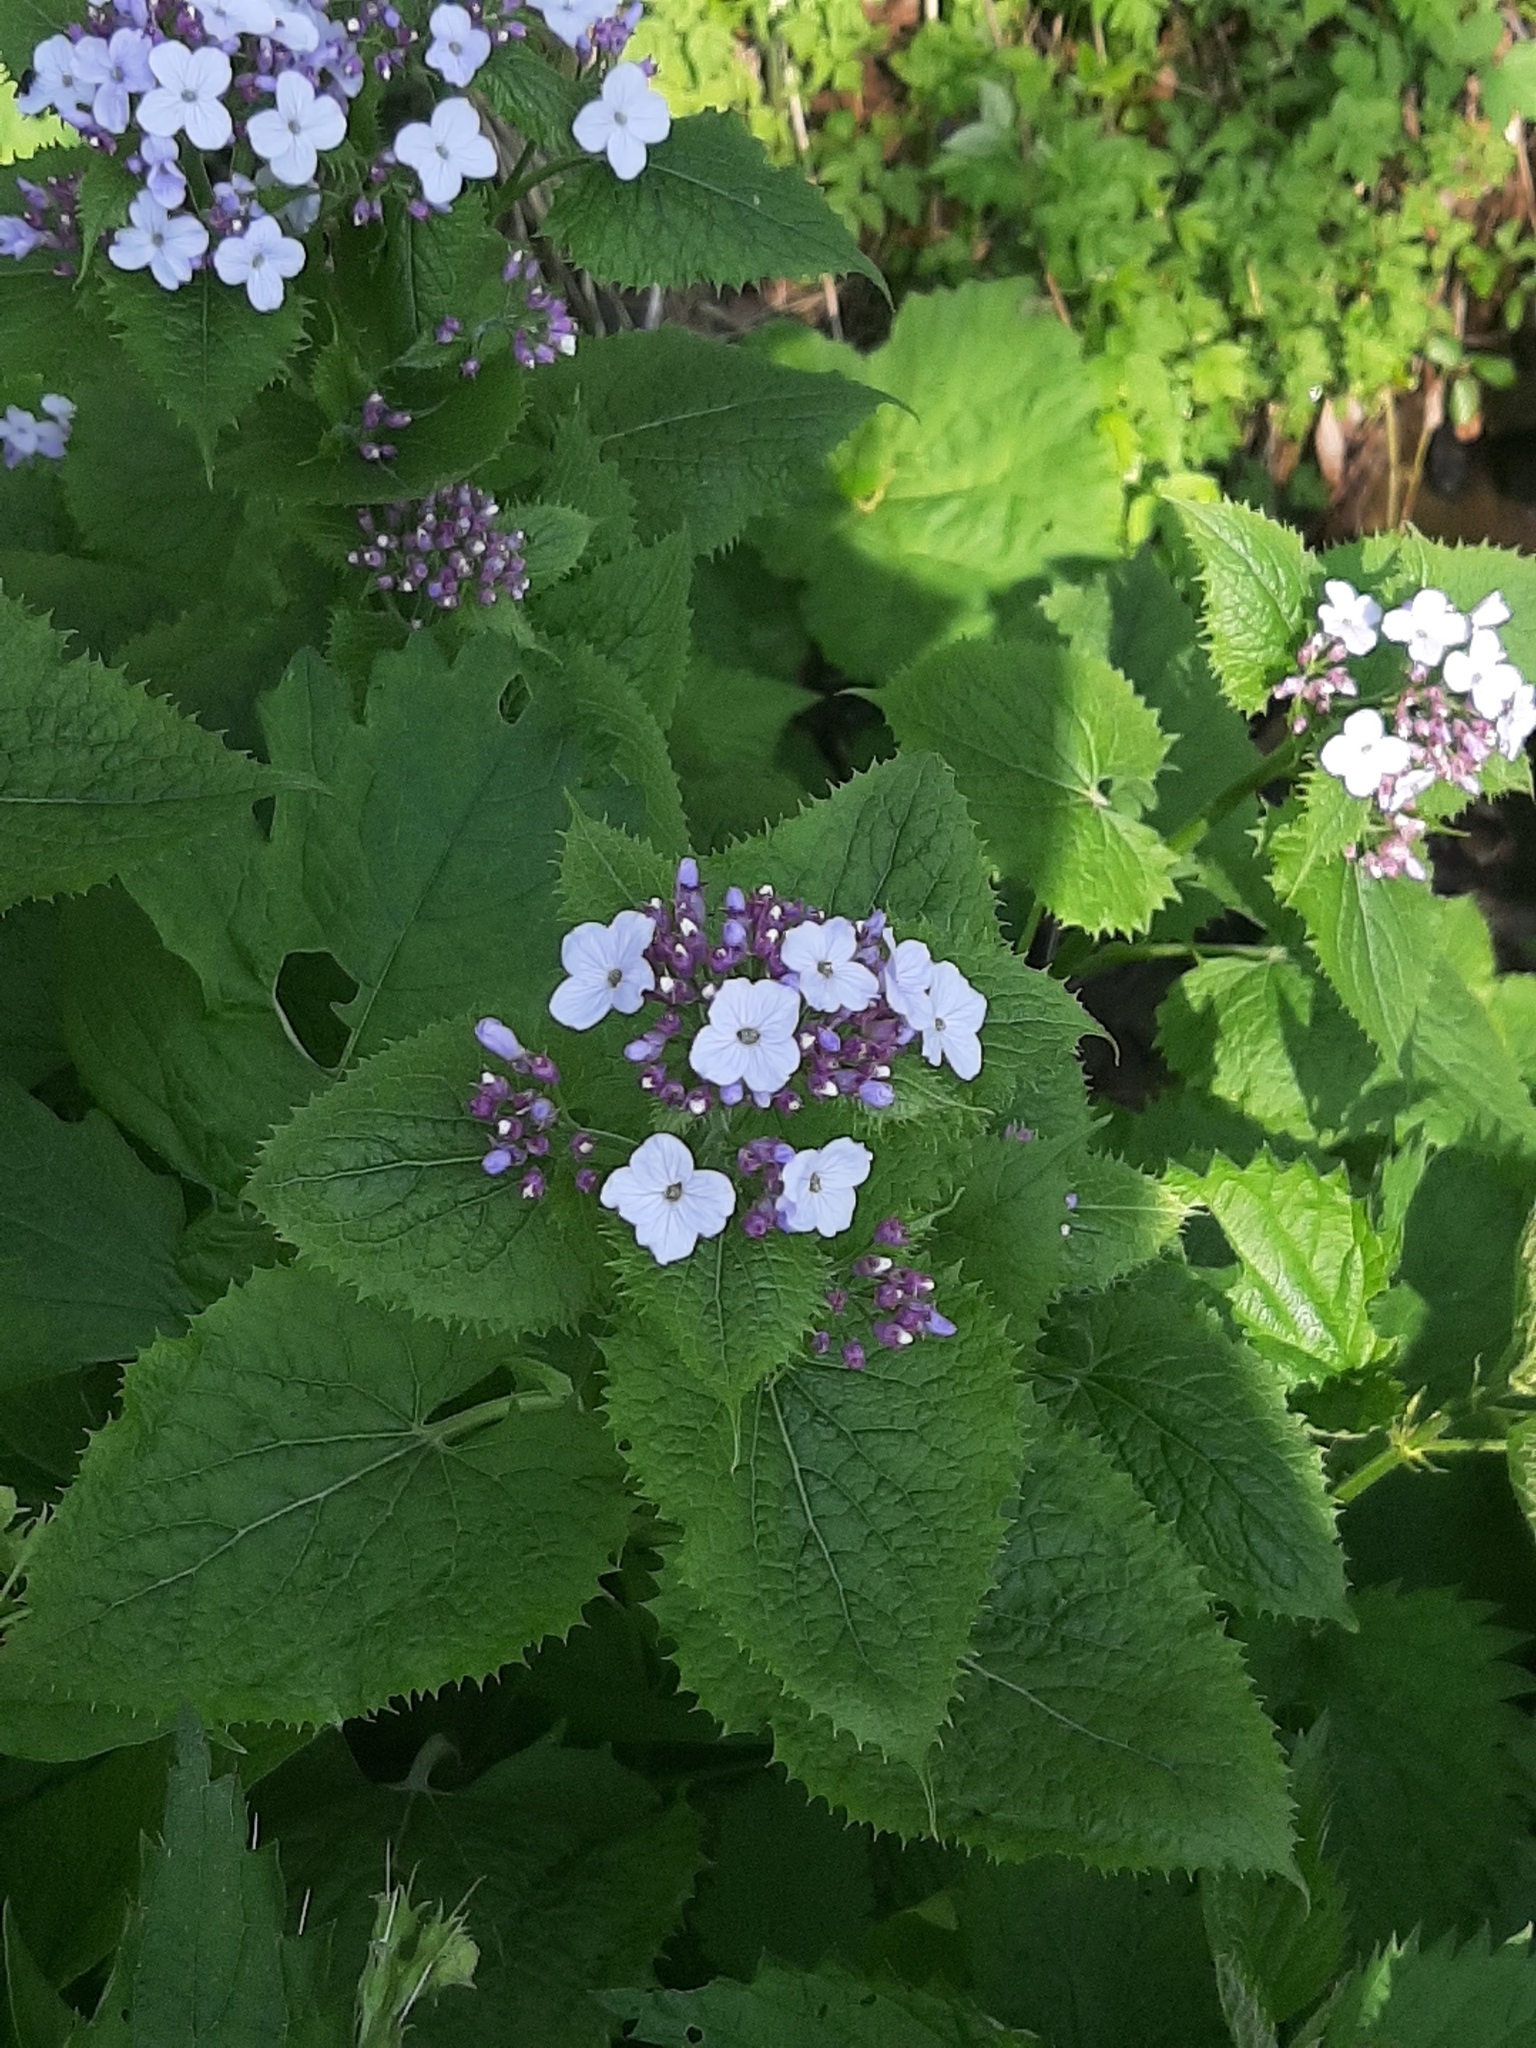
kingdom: Plantae
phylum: Tracheophyta
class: Magnoliopsida
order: Brassicales
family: Brassicaceae
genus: Lunaria
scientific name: Lunaria rediviva
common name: Perennial honesty
